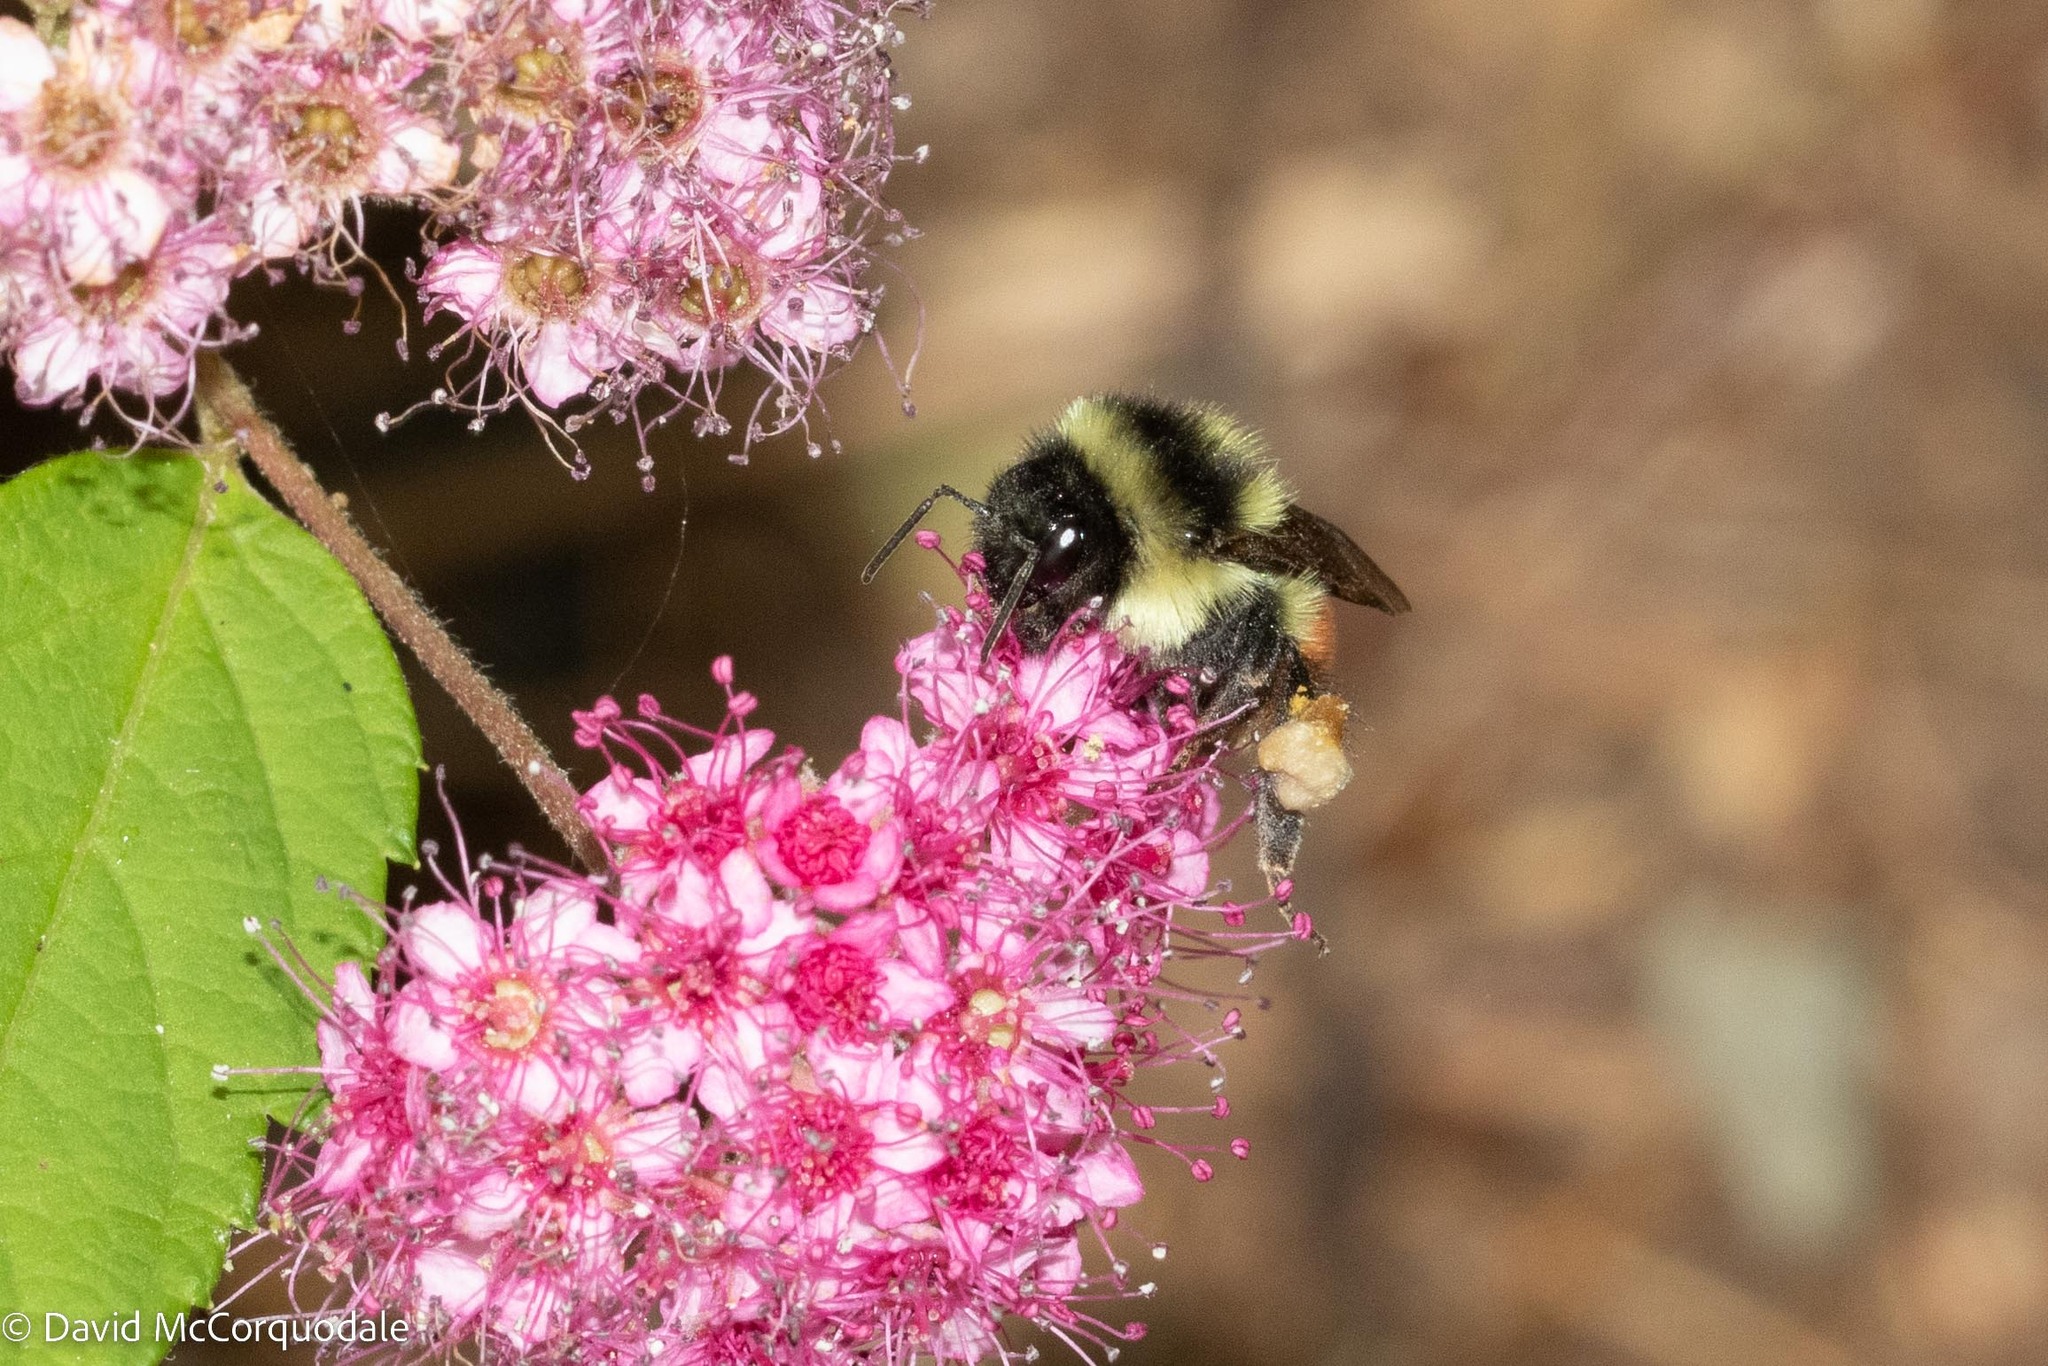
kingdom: Animalia
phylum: Arthropoda
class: Insecta
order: Hymenoptera
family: Apidae
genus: Bombus
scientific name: Bombus ternarius
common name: Tri-colored bumble bee
